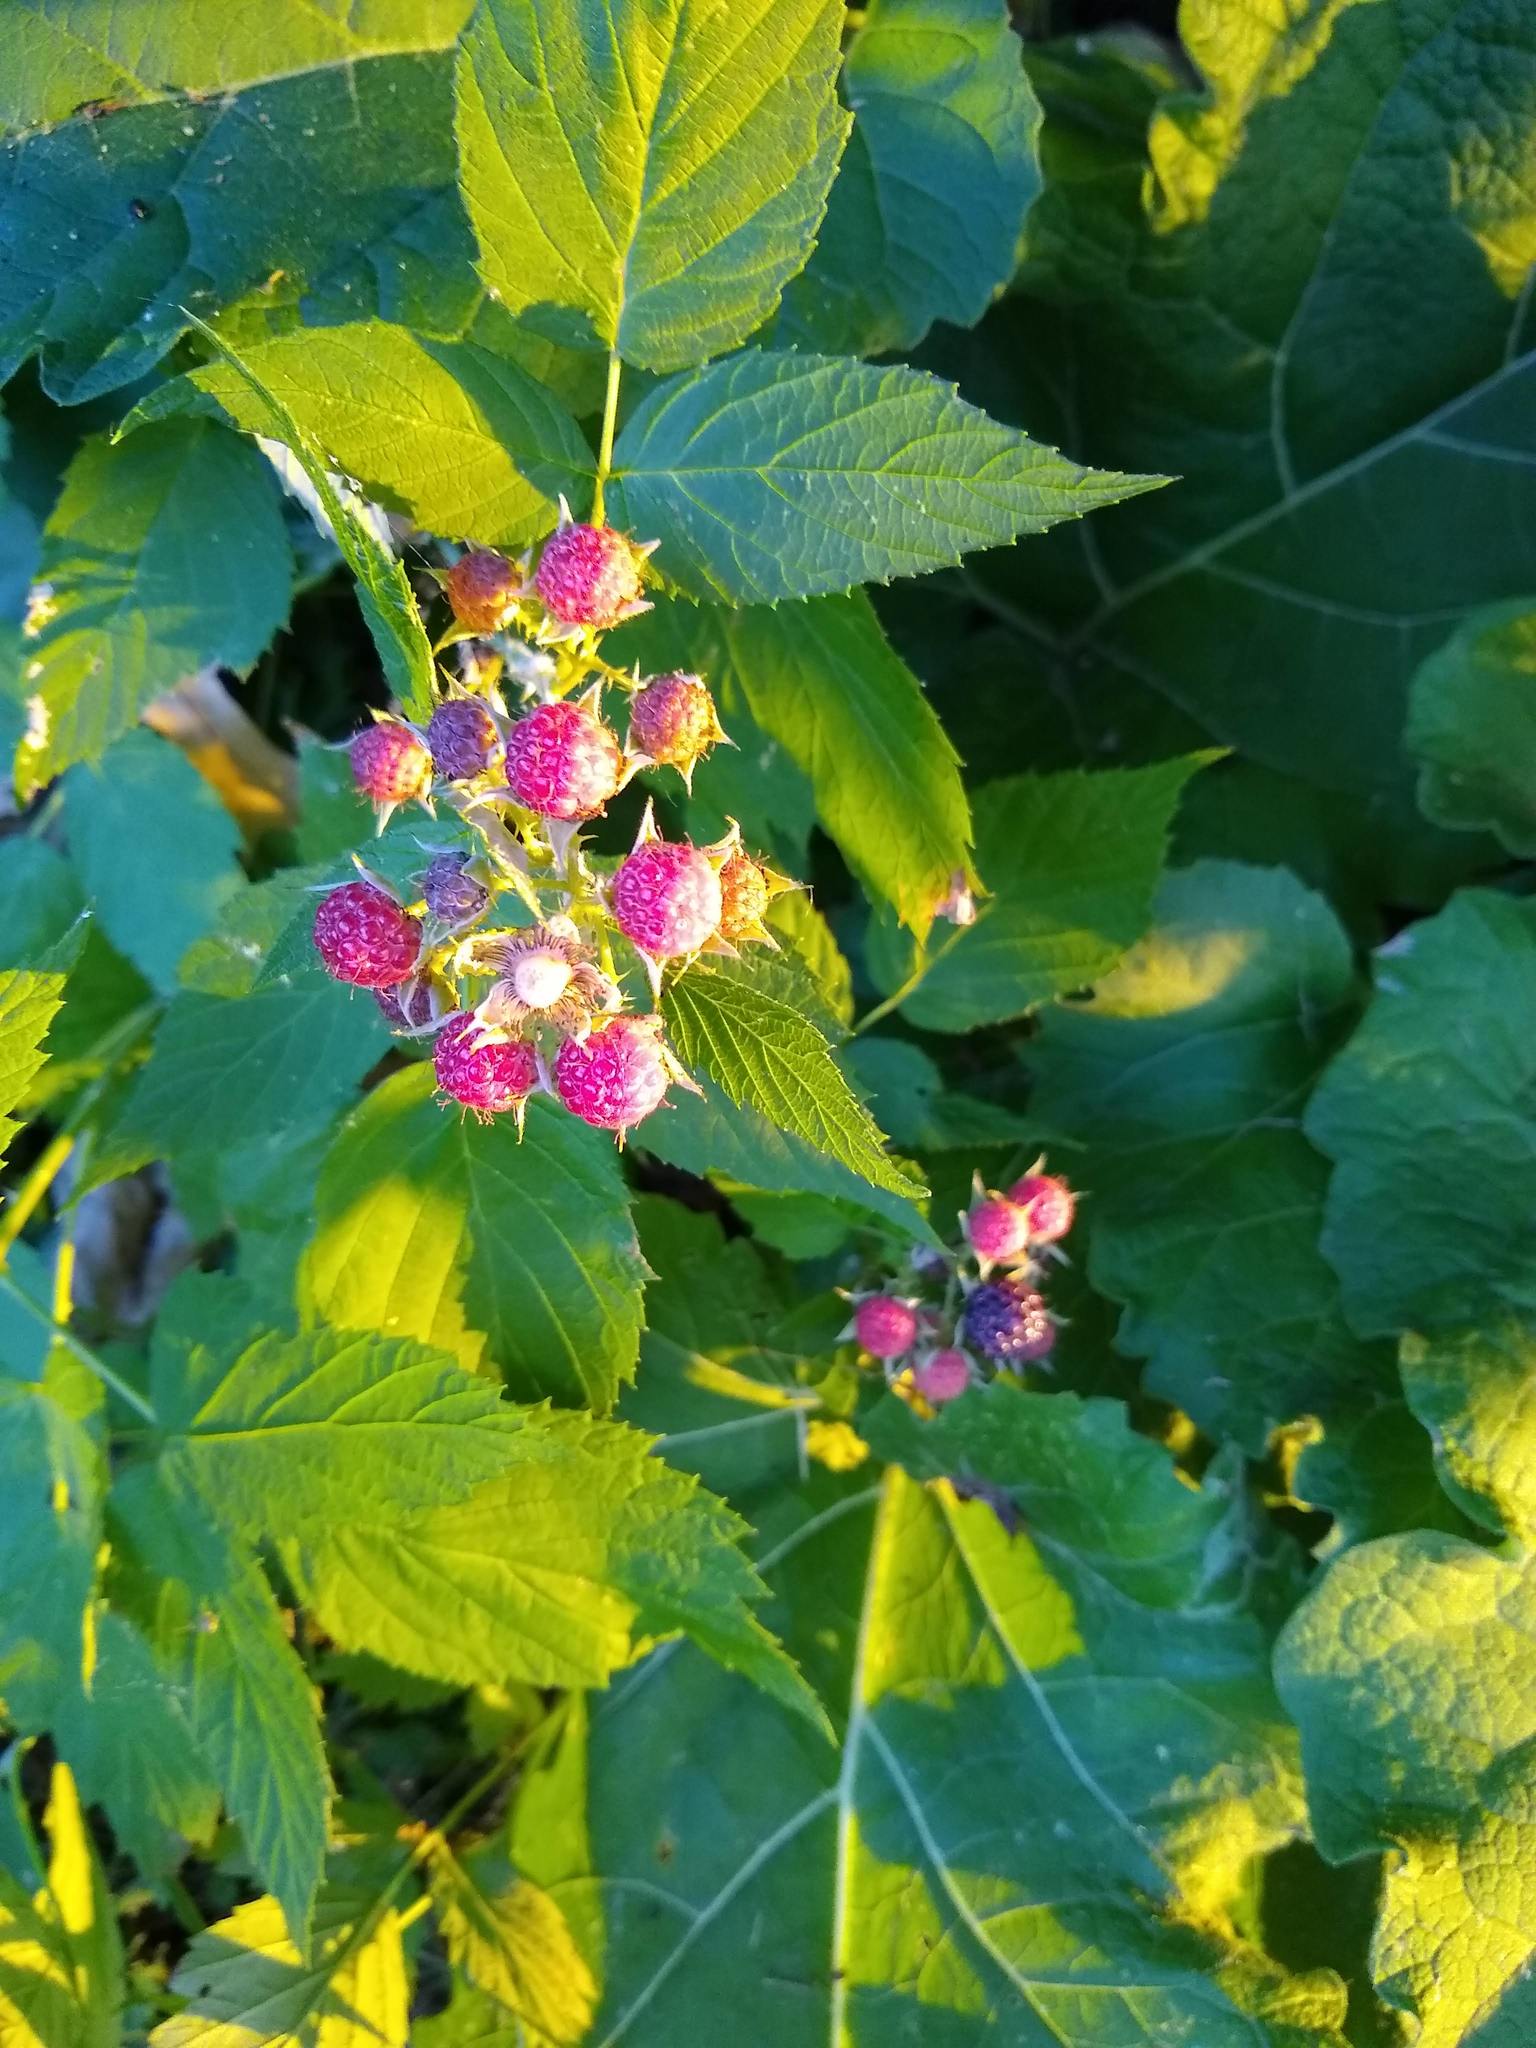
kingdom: Plantae
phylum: Tracheophyta
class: Magnoliopsida
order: Rosales
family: Rosaceae
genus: Rubus
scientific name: Rubus occidentalis
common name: Black raspberry
